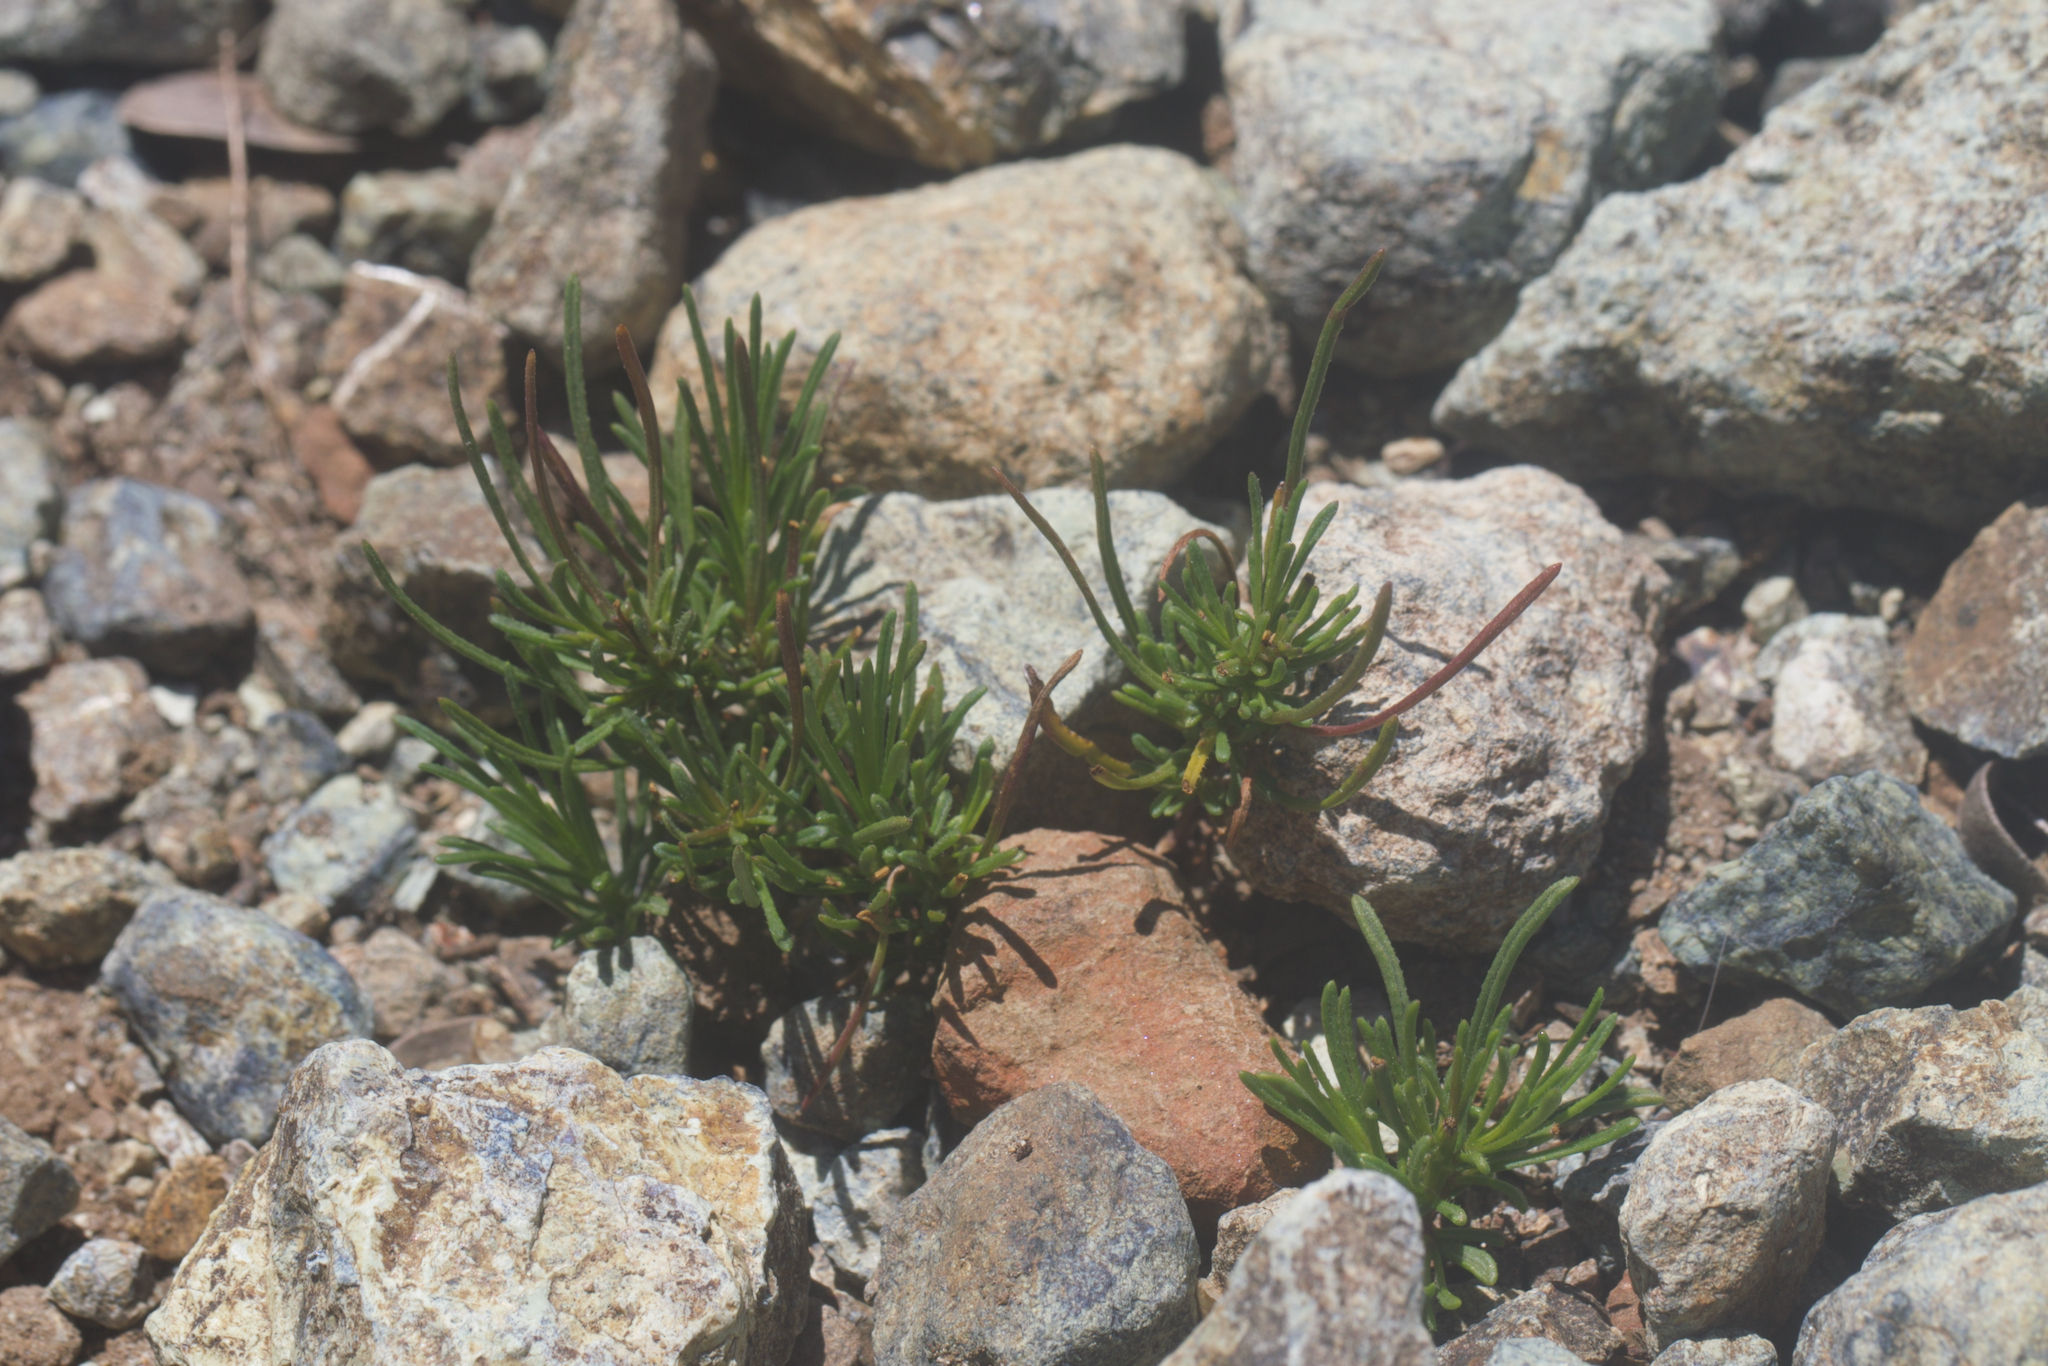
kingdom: Plantae
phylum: Tracheophyta
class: Magnoliopsida
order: Asterales
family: Asteraceae
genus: Erigeron
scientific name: Erigeron greenei
